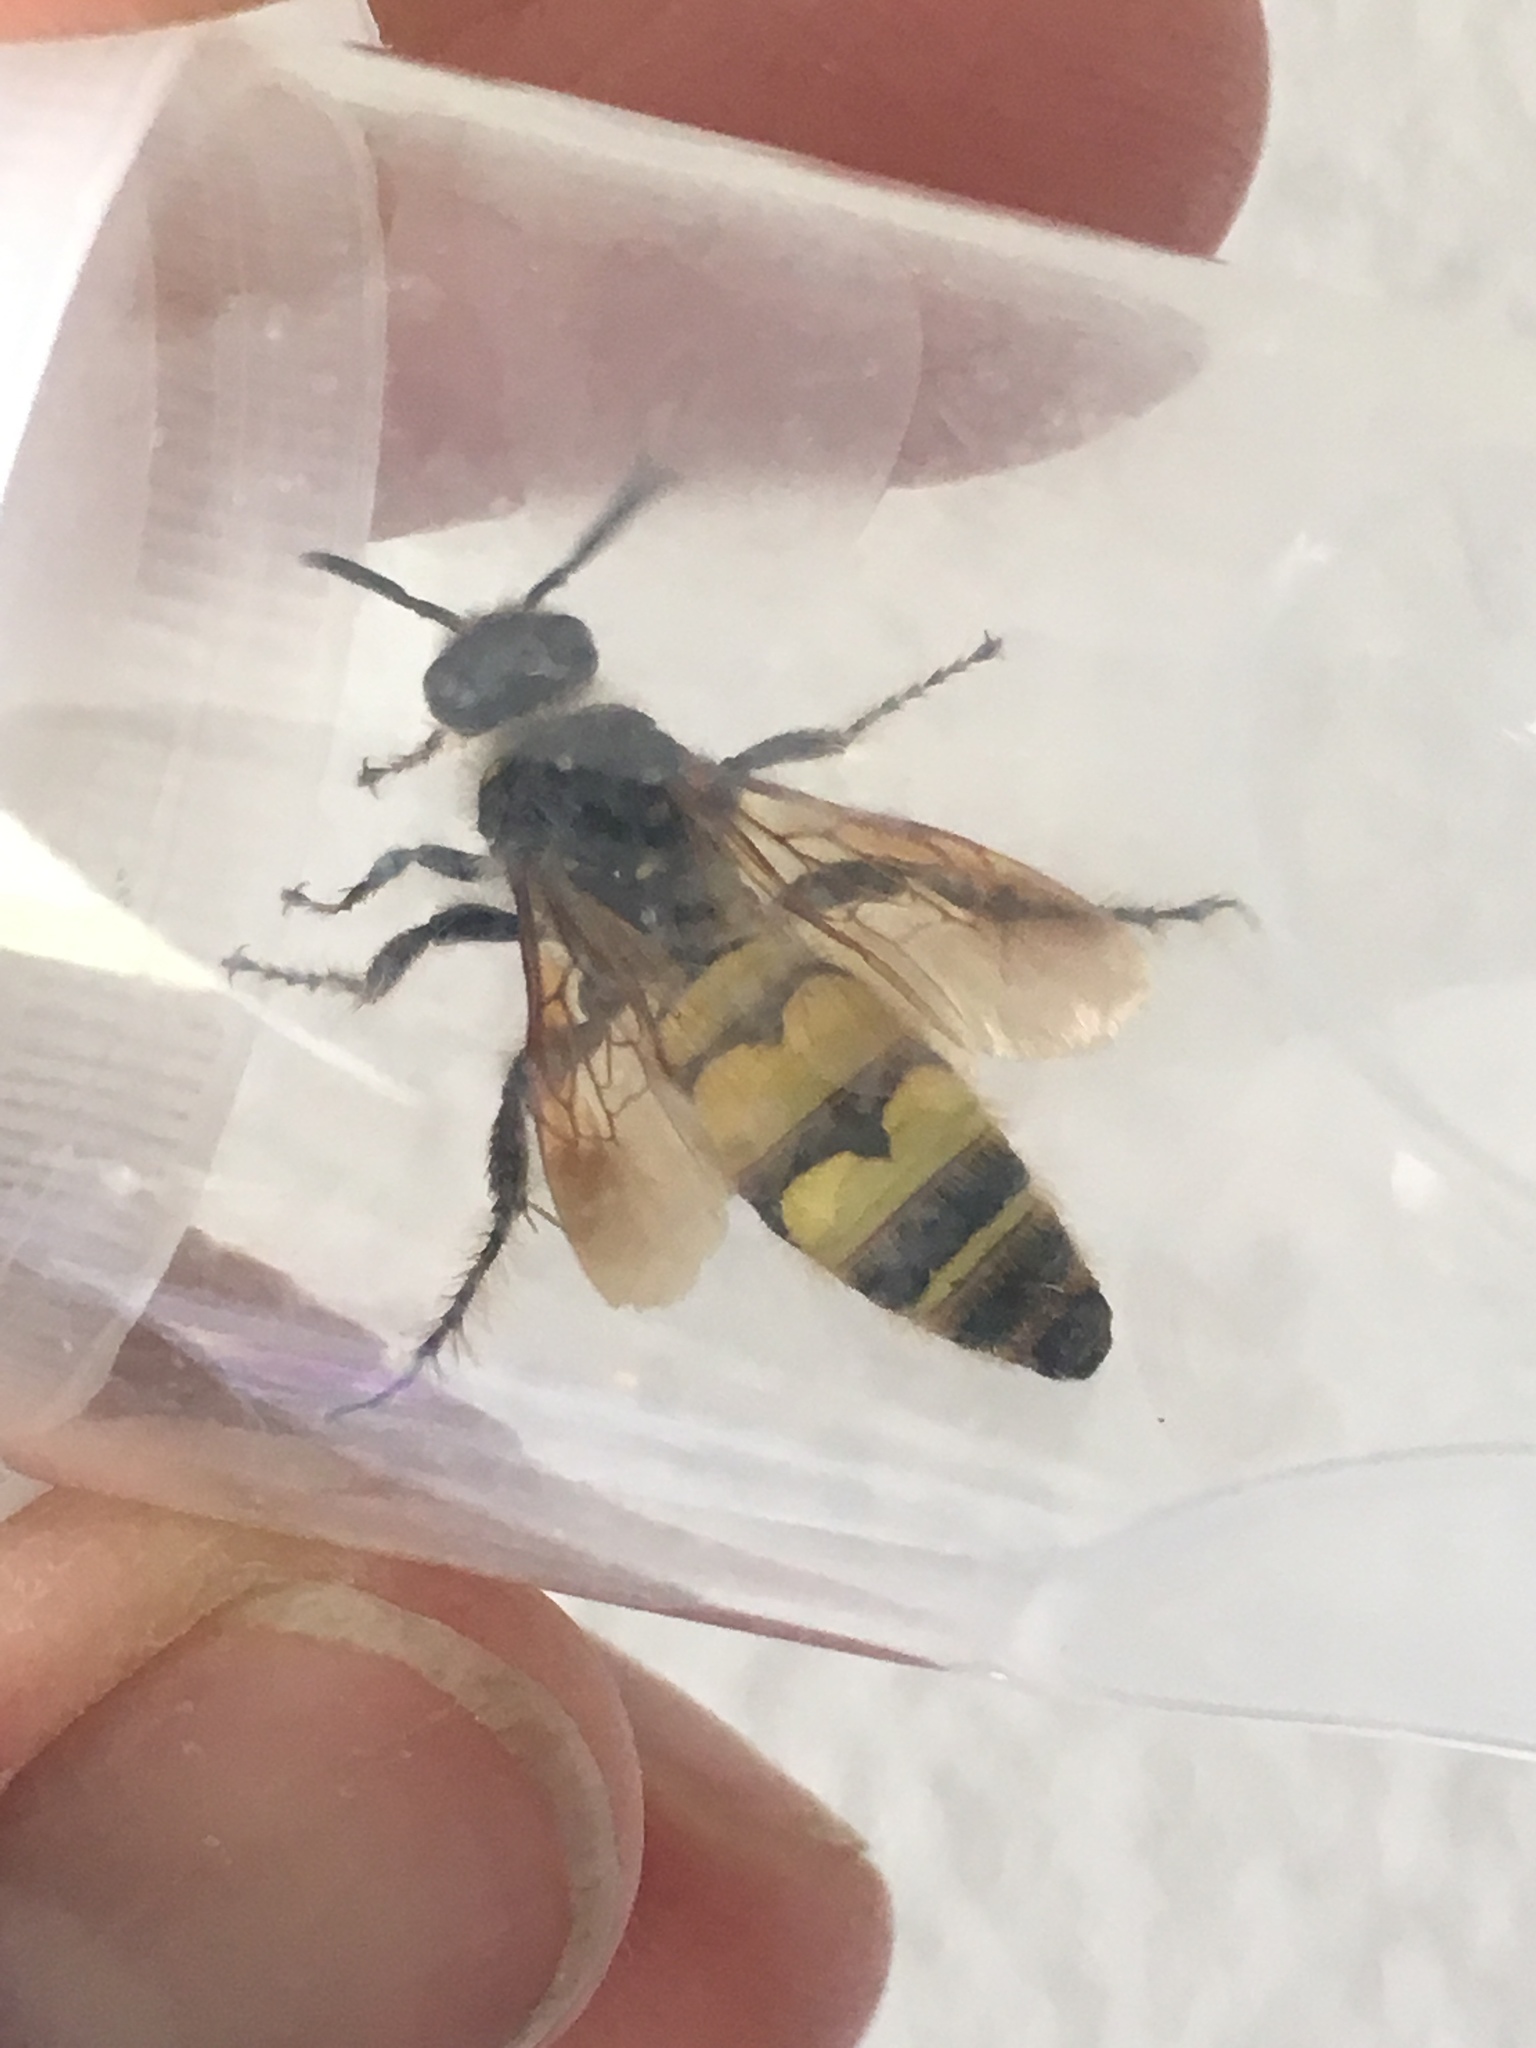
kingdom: Animalia
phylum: Arthropoda
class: Insecta
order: Hymenoptera
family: Scoliidae
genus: Dielis
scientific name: Dielis
